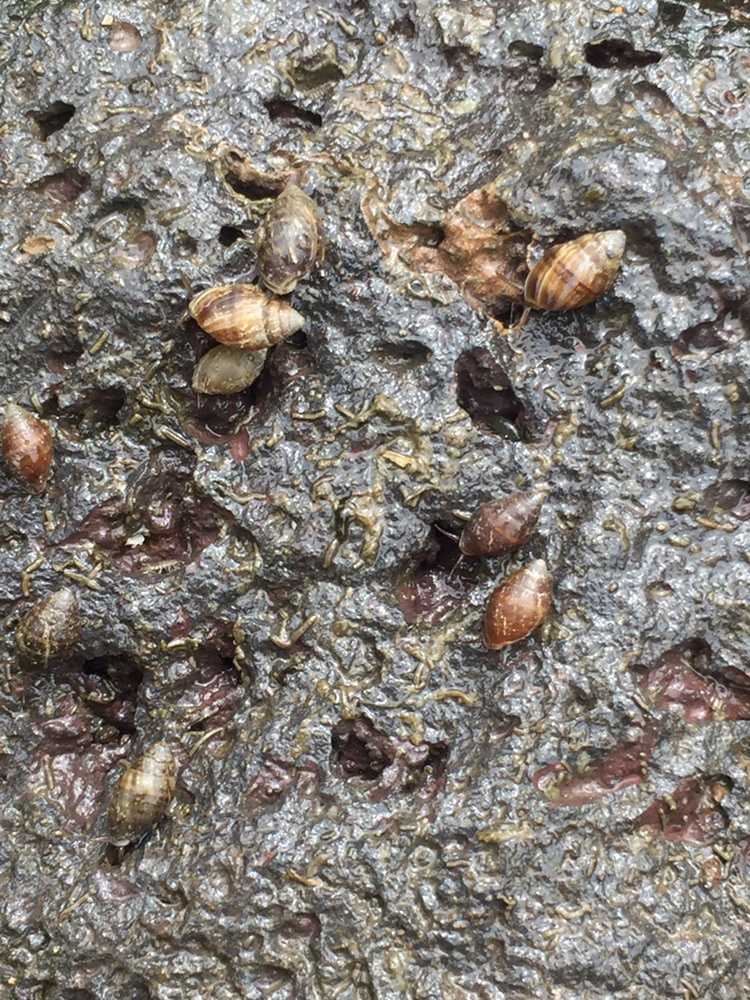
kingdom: Animalia
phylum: Mollusca
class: Gastropoda
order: Ellobiida
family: Ellobiidae
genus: Pleuroloba
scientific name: Pleuroloba costellaris
